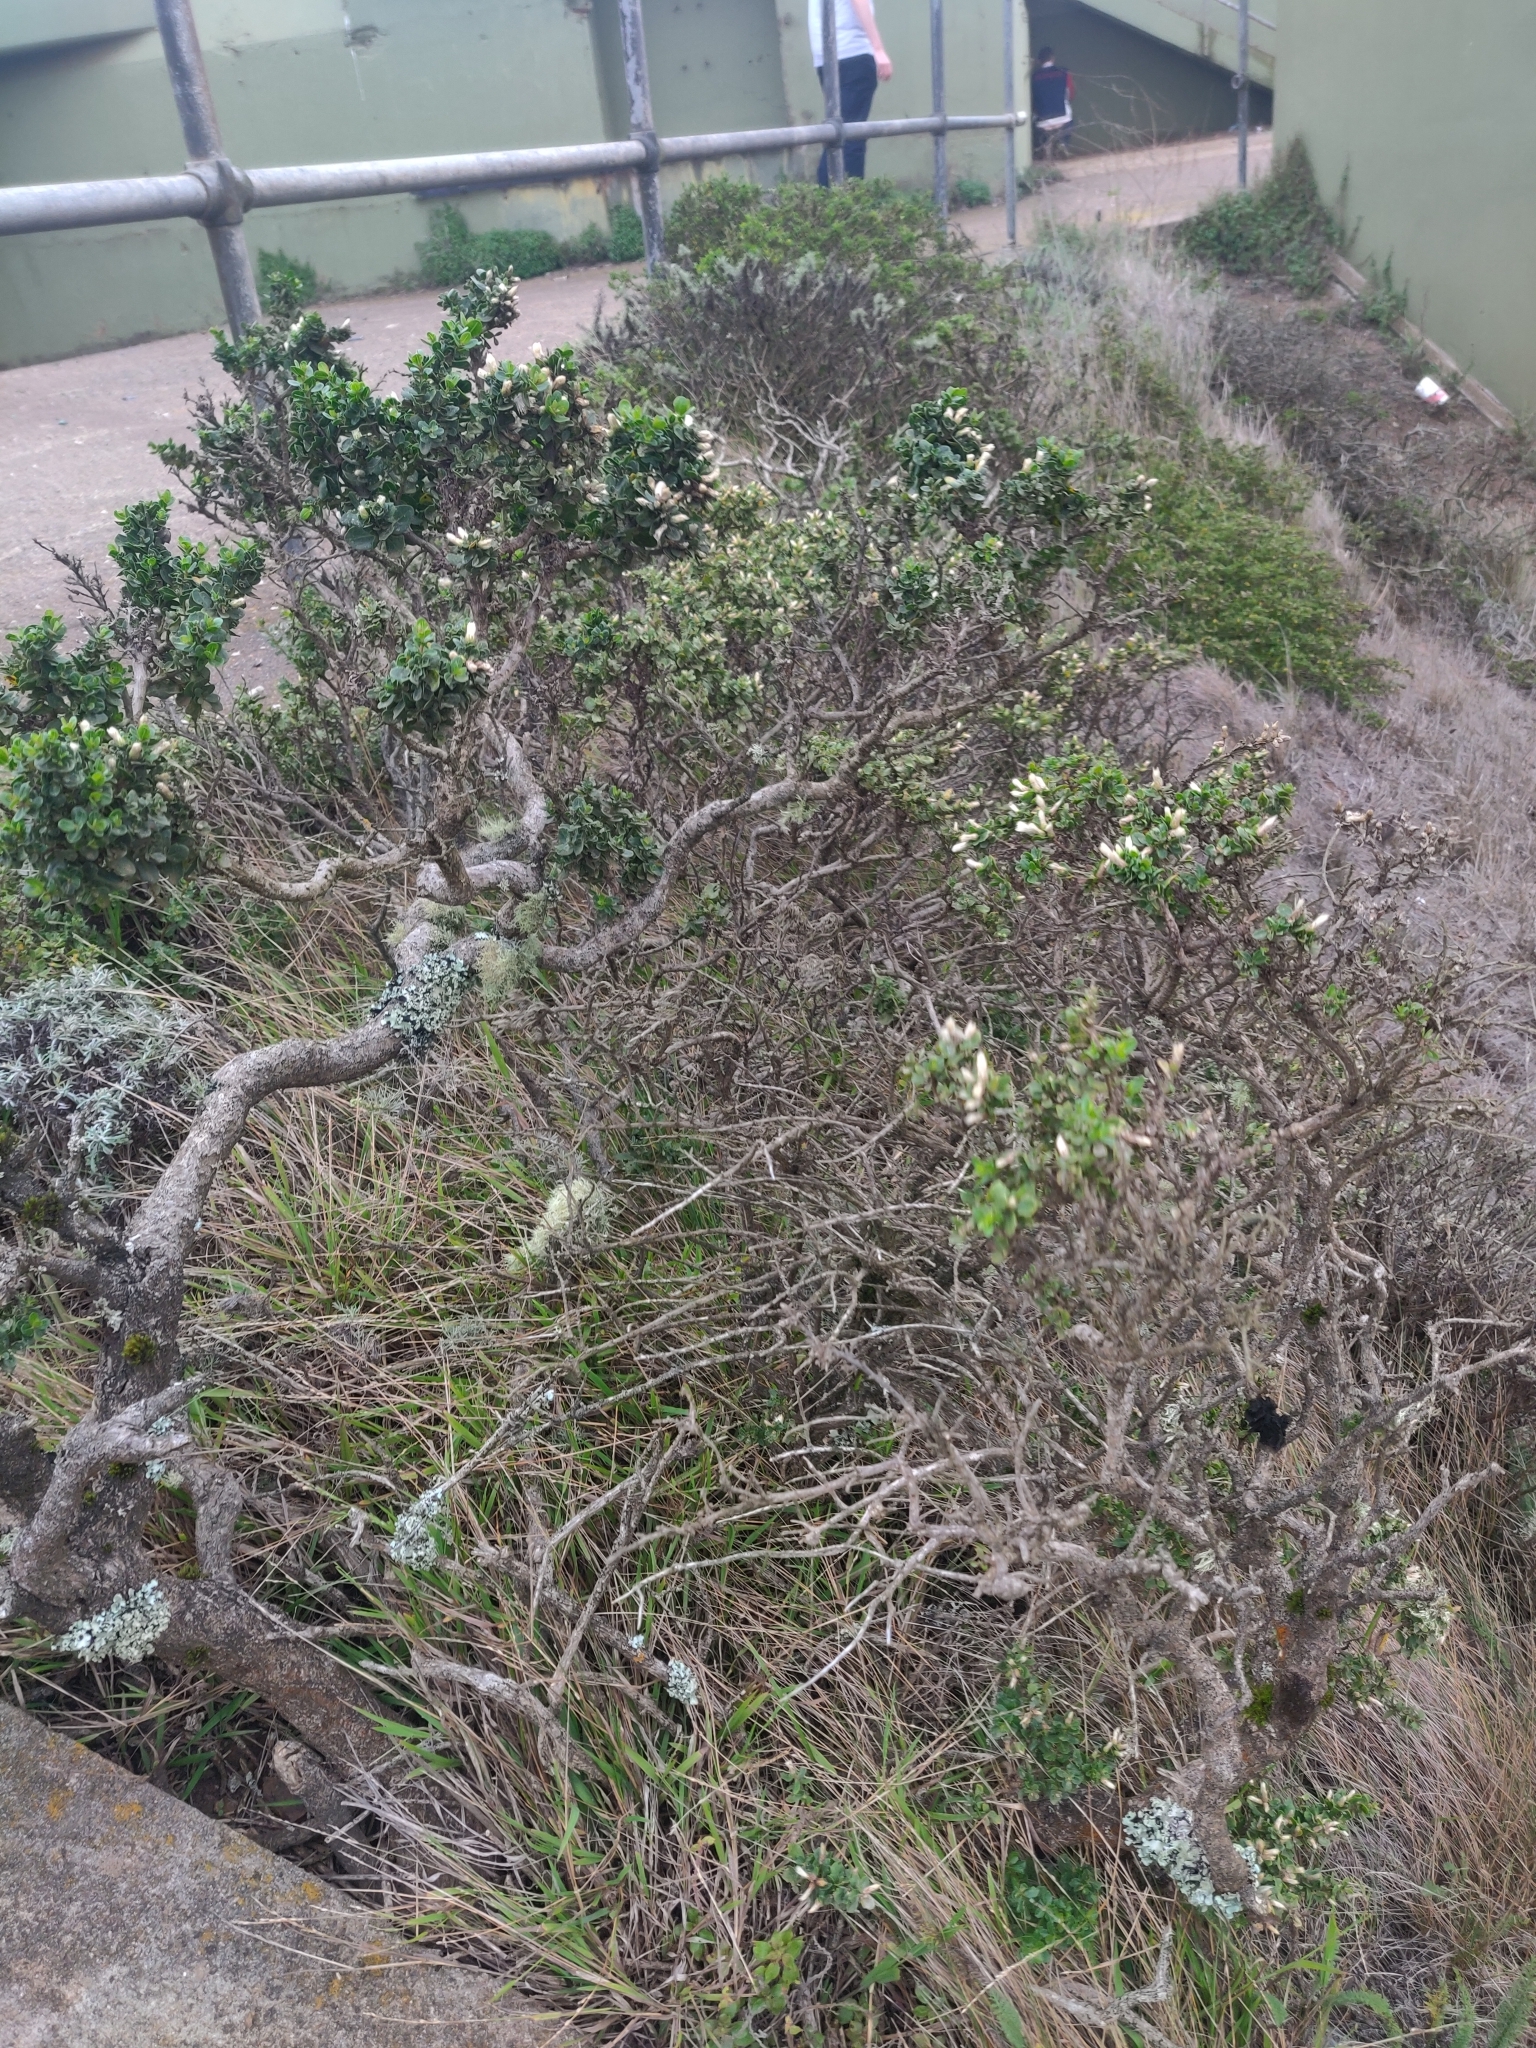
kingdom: Plantae
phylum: Tracheophyta
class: Magnoliopsida
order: Asterales
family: Asteraceae
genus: Baccharis
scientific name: Baccharis pilularis
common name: Coyotebrush
